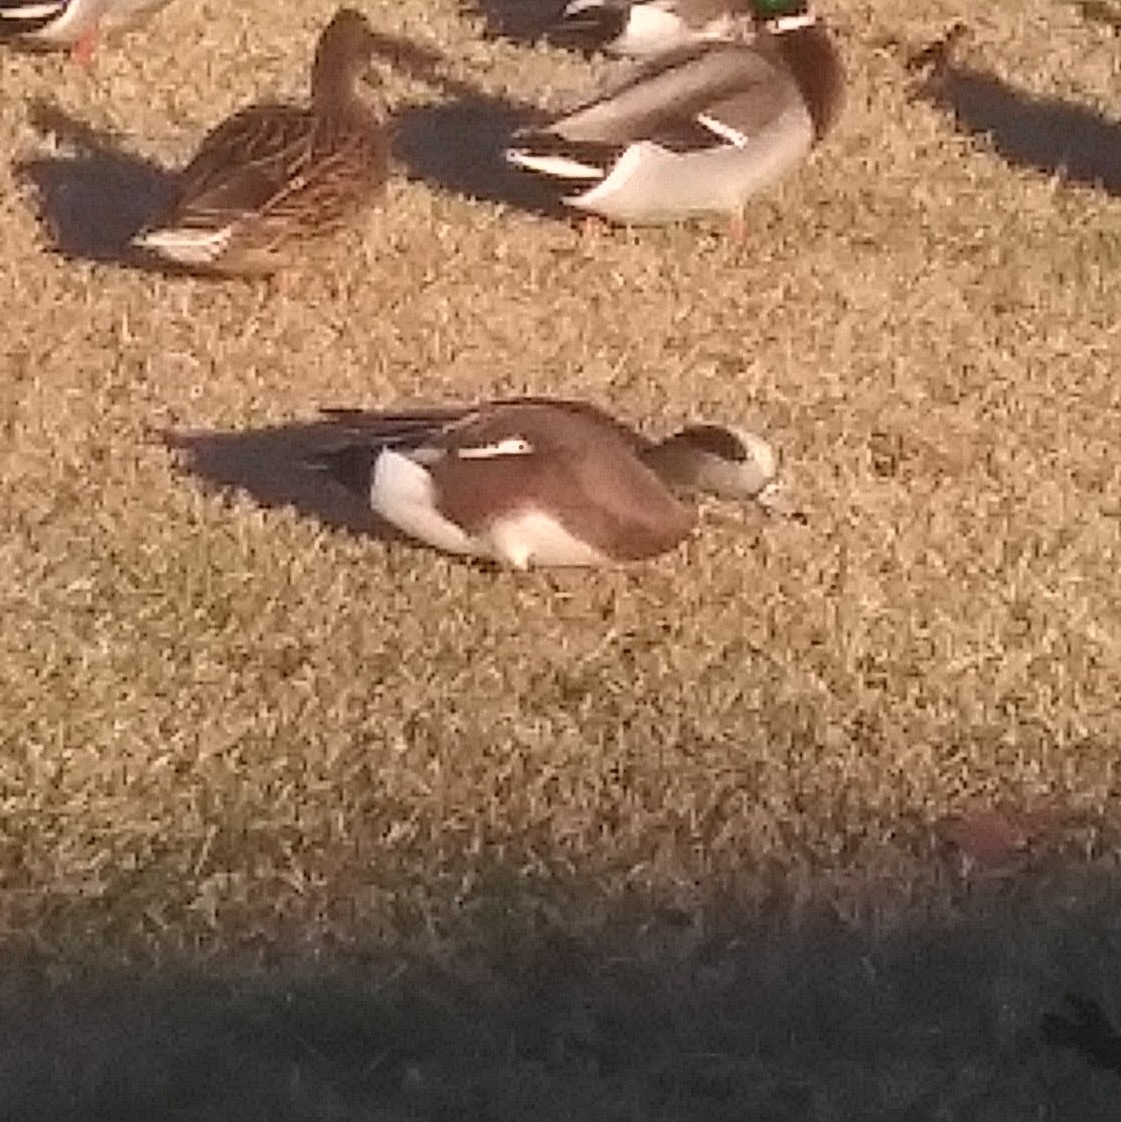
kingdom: Animalia
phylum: Chordata
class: Aves
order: Anseriformes
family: Anatidae
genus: Mareca
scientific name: Mareca americana
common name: American wigeon
